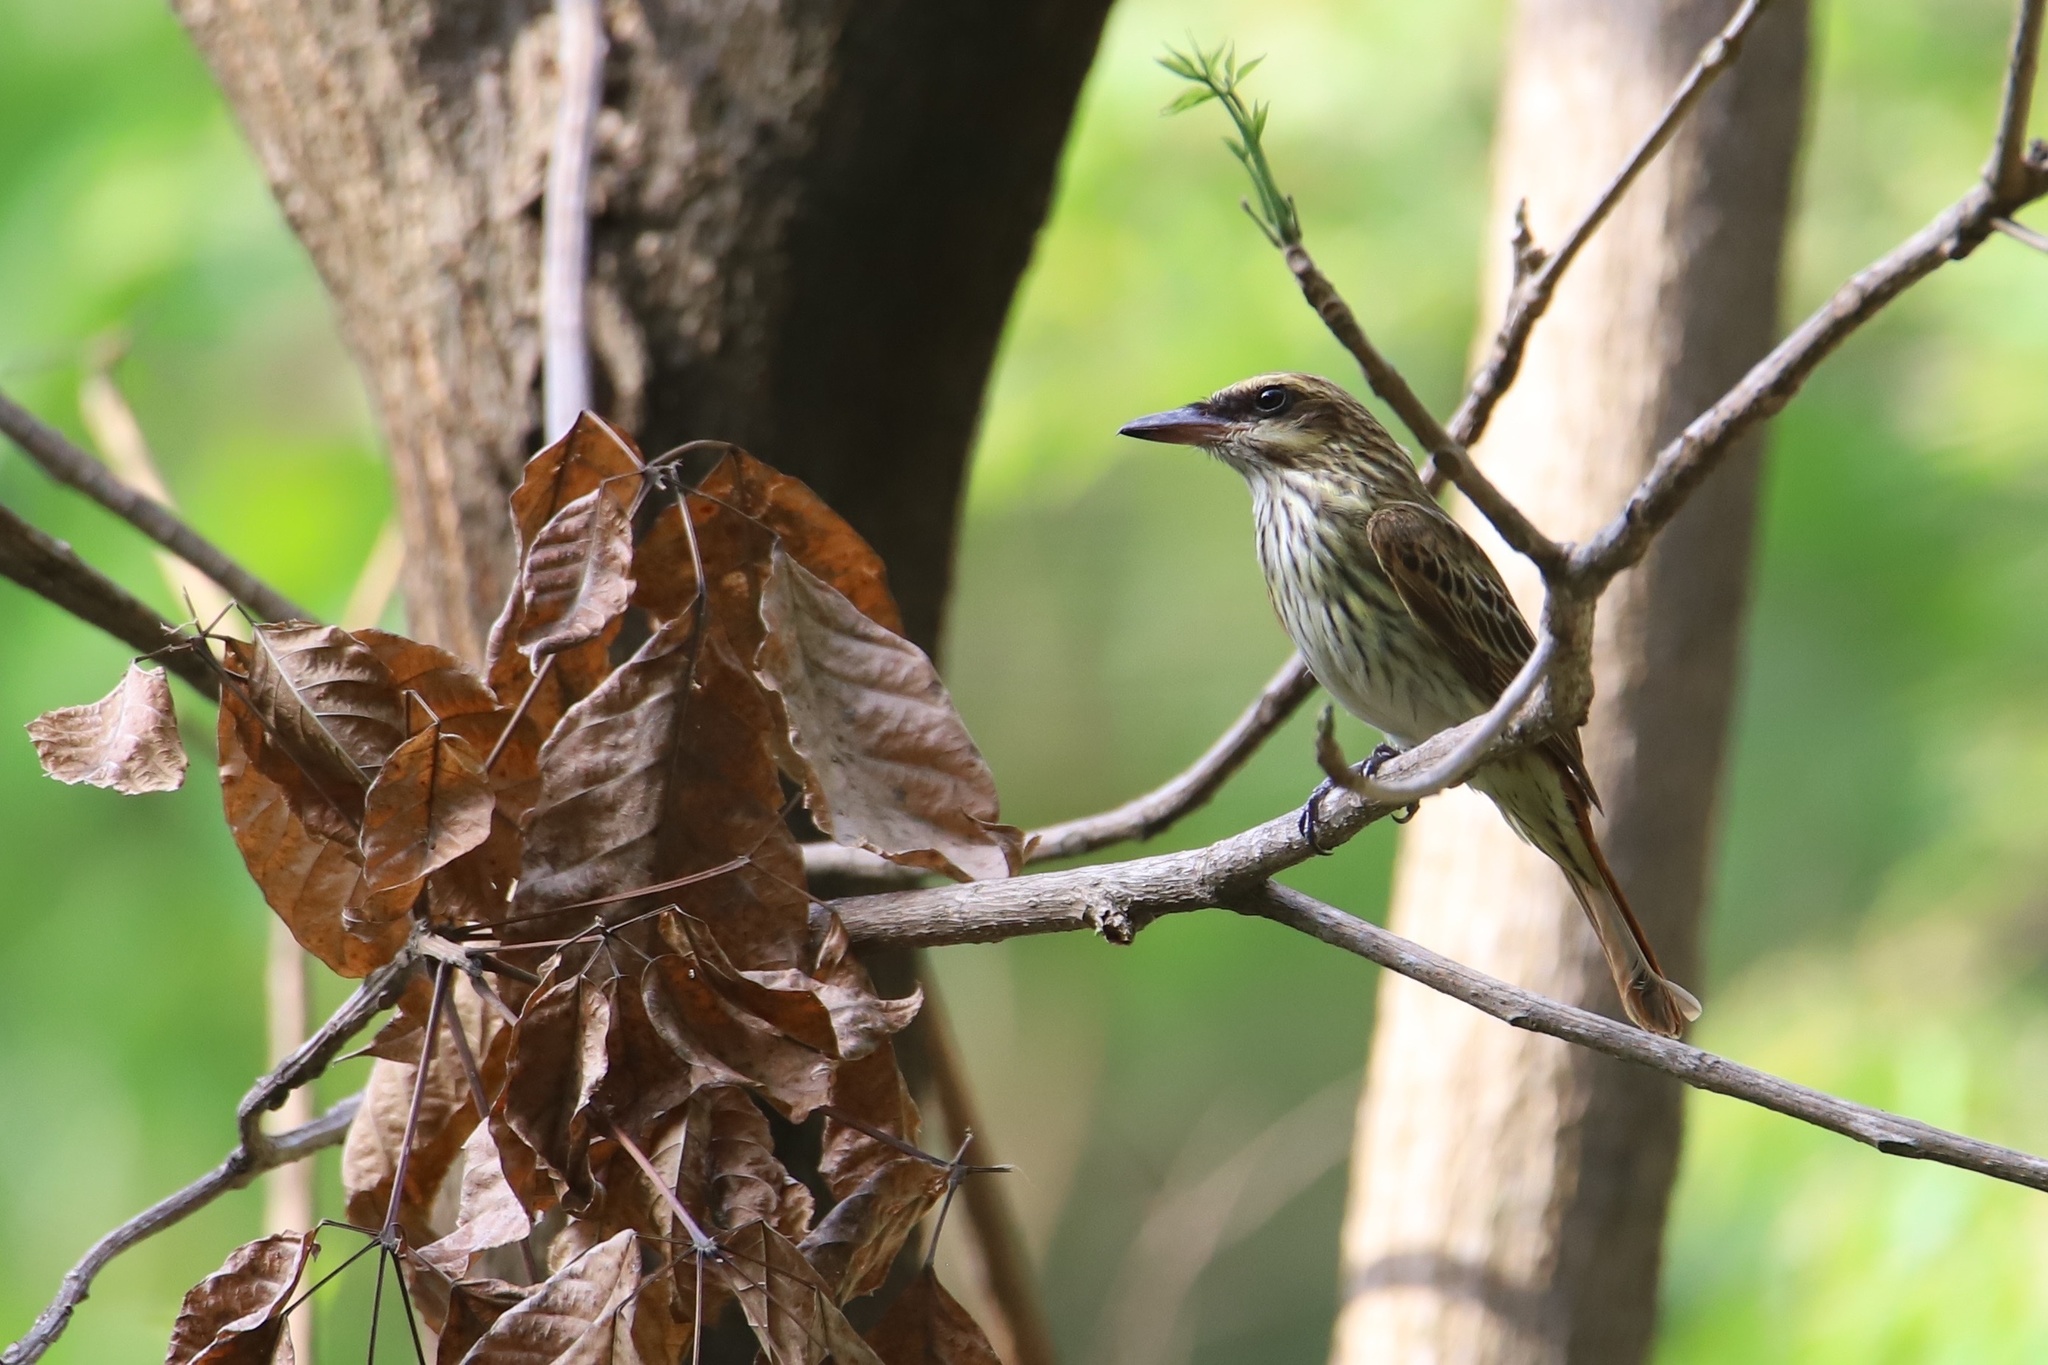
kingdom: Animalia
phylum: Chordata
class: Aves
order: Passeriformes
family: Tyrannidae
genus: Myiodynastes
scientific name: Myiodynastes maculatus
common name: Streaked flycatcher
